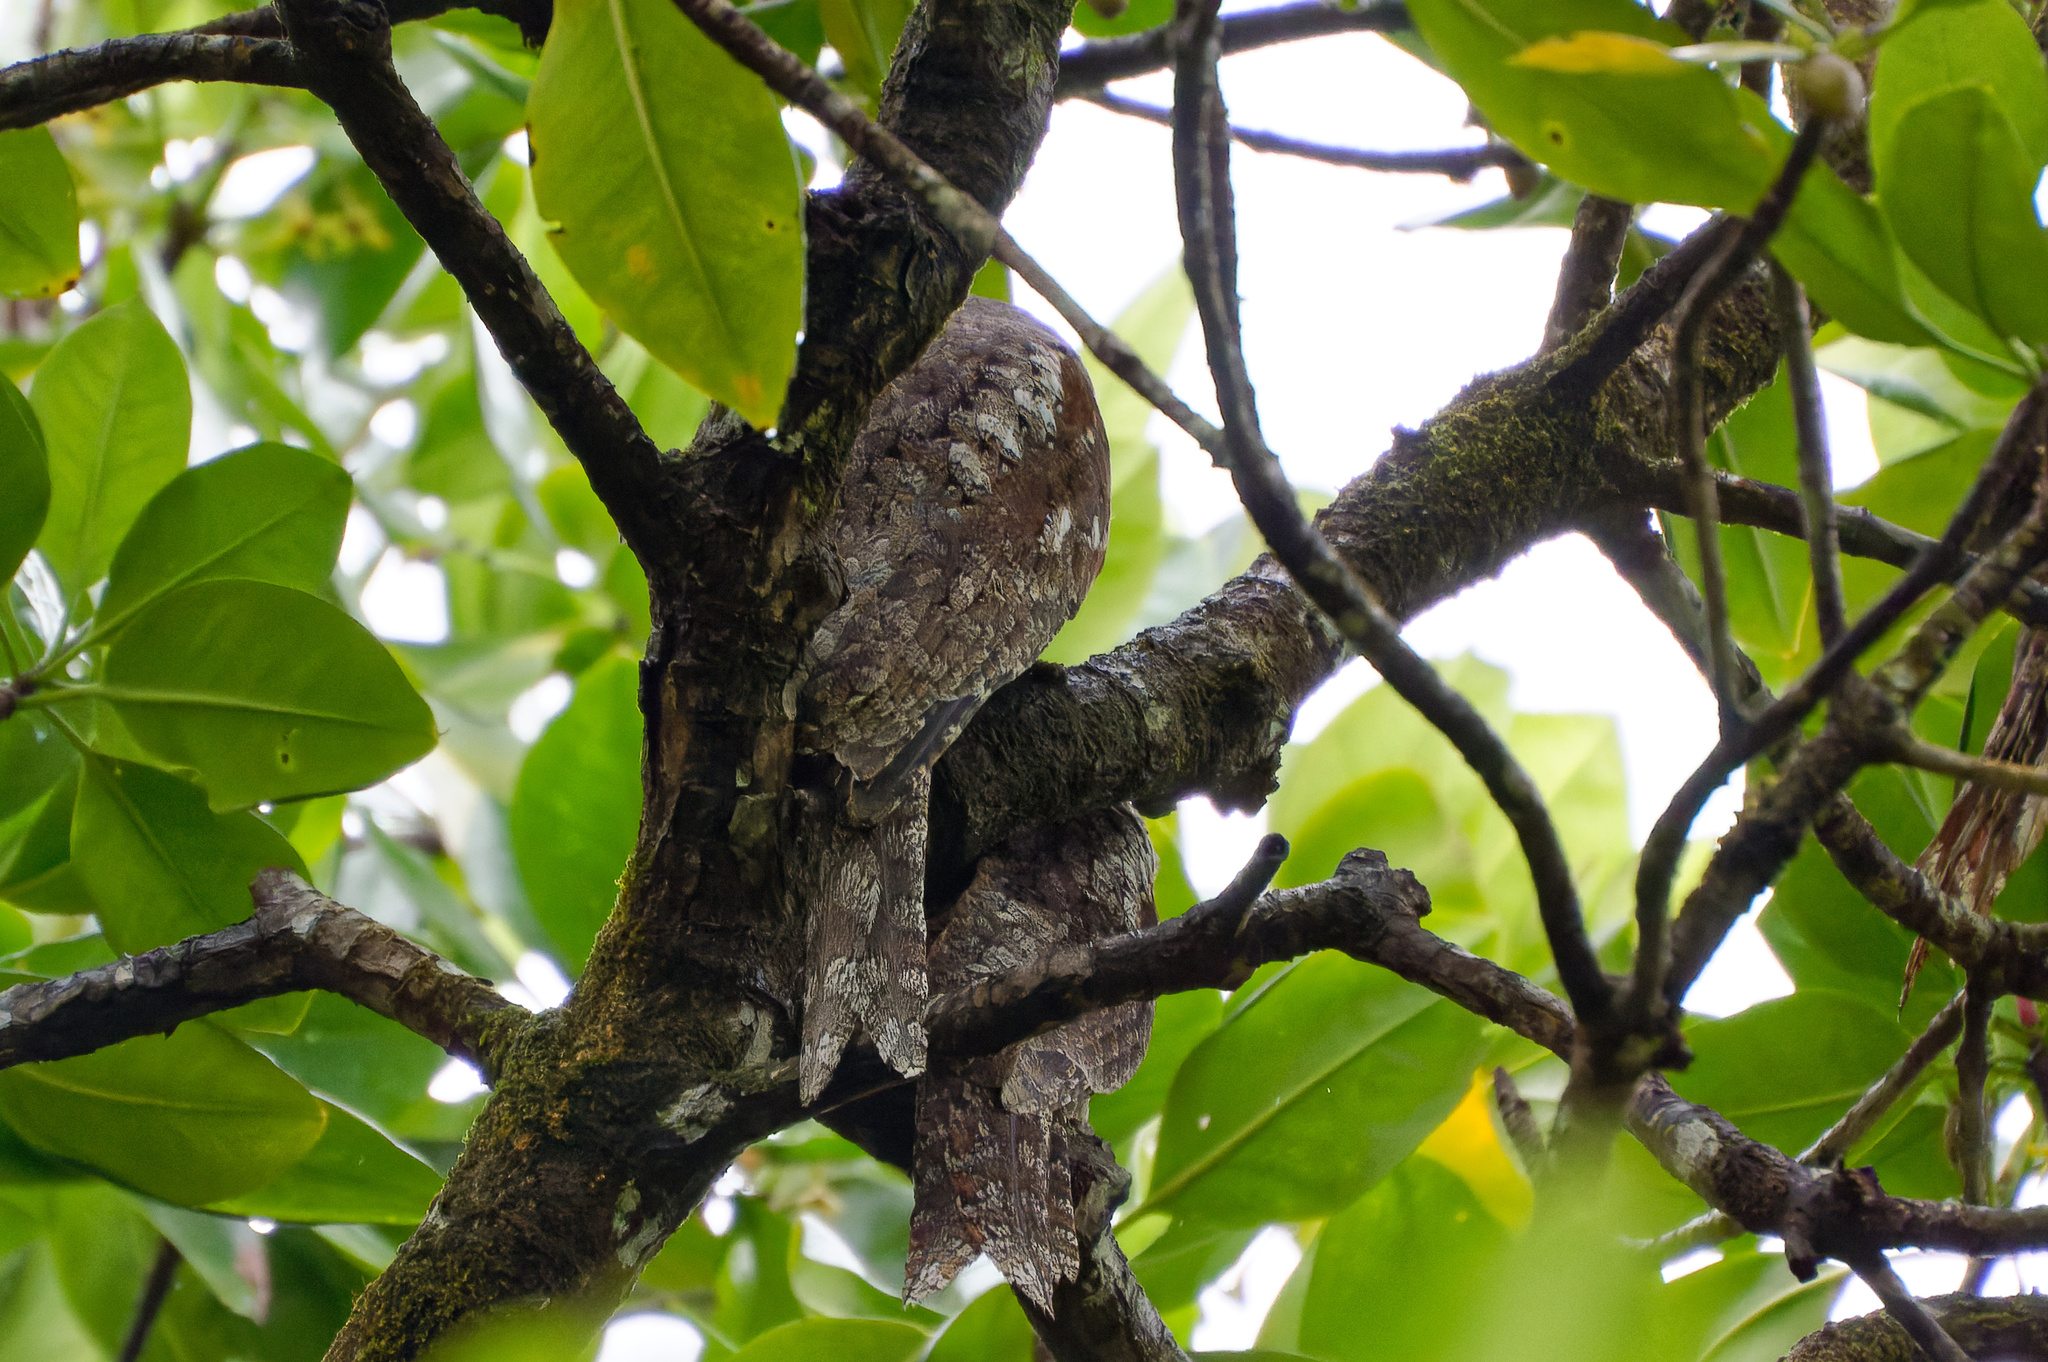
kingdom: Animalia
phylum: Chordata
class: Aves
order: Caprimulgiformes
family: Podargidae
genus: Podargus
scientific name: Podargus papuensis
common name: Papuan frogmouth
